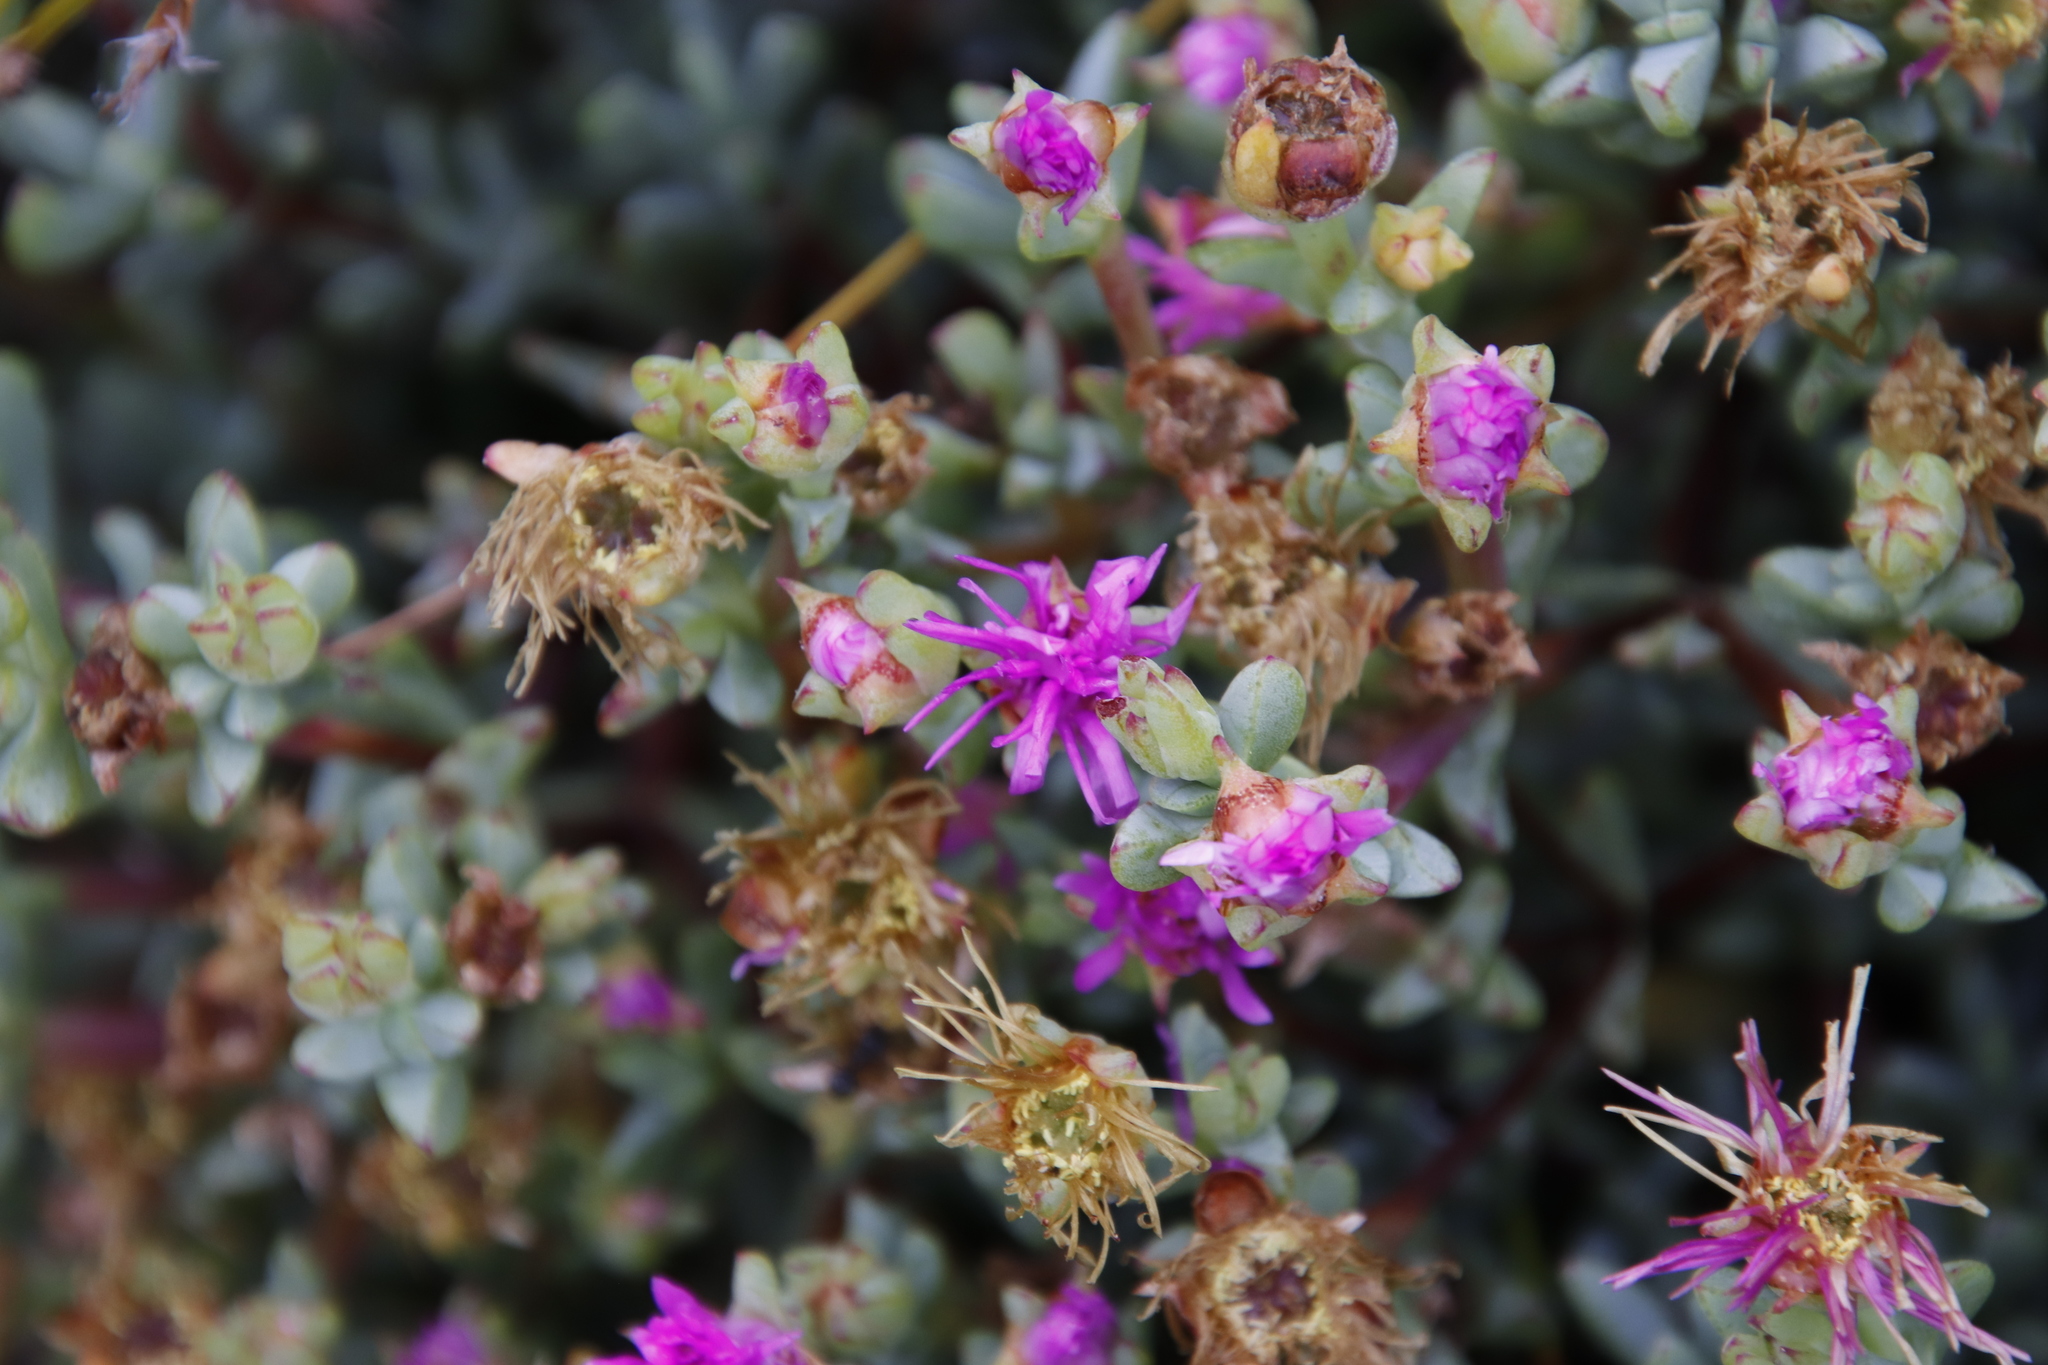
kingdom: Plantae
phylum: Tracheophyta
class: Magnoliopsida
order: Caryophyllales
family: Aizoaceae
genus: Oscularia
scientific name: Oscularia falciformis
